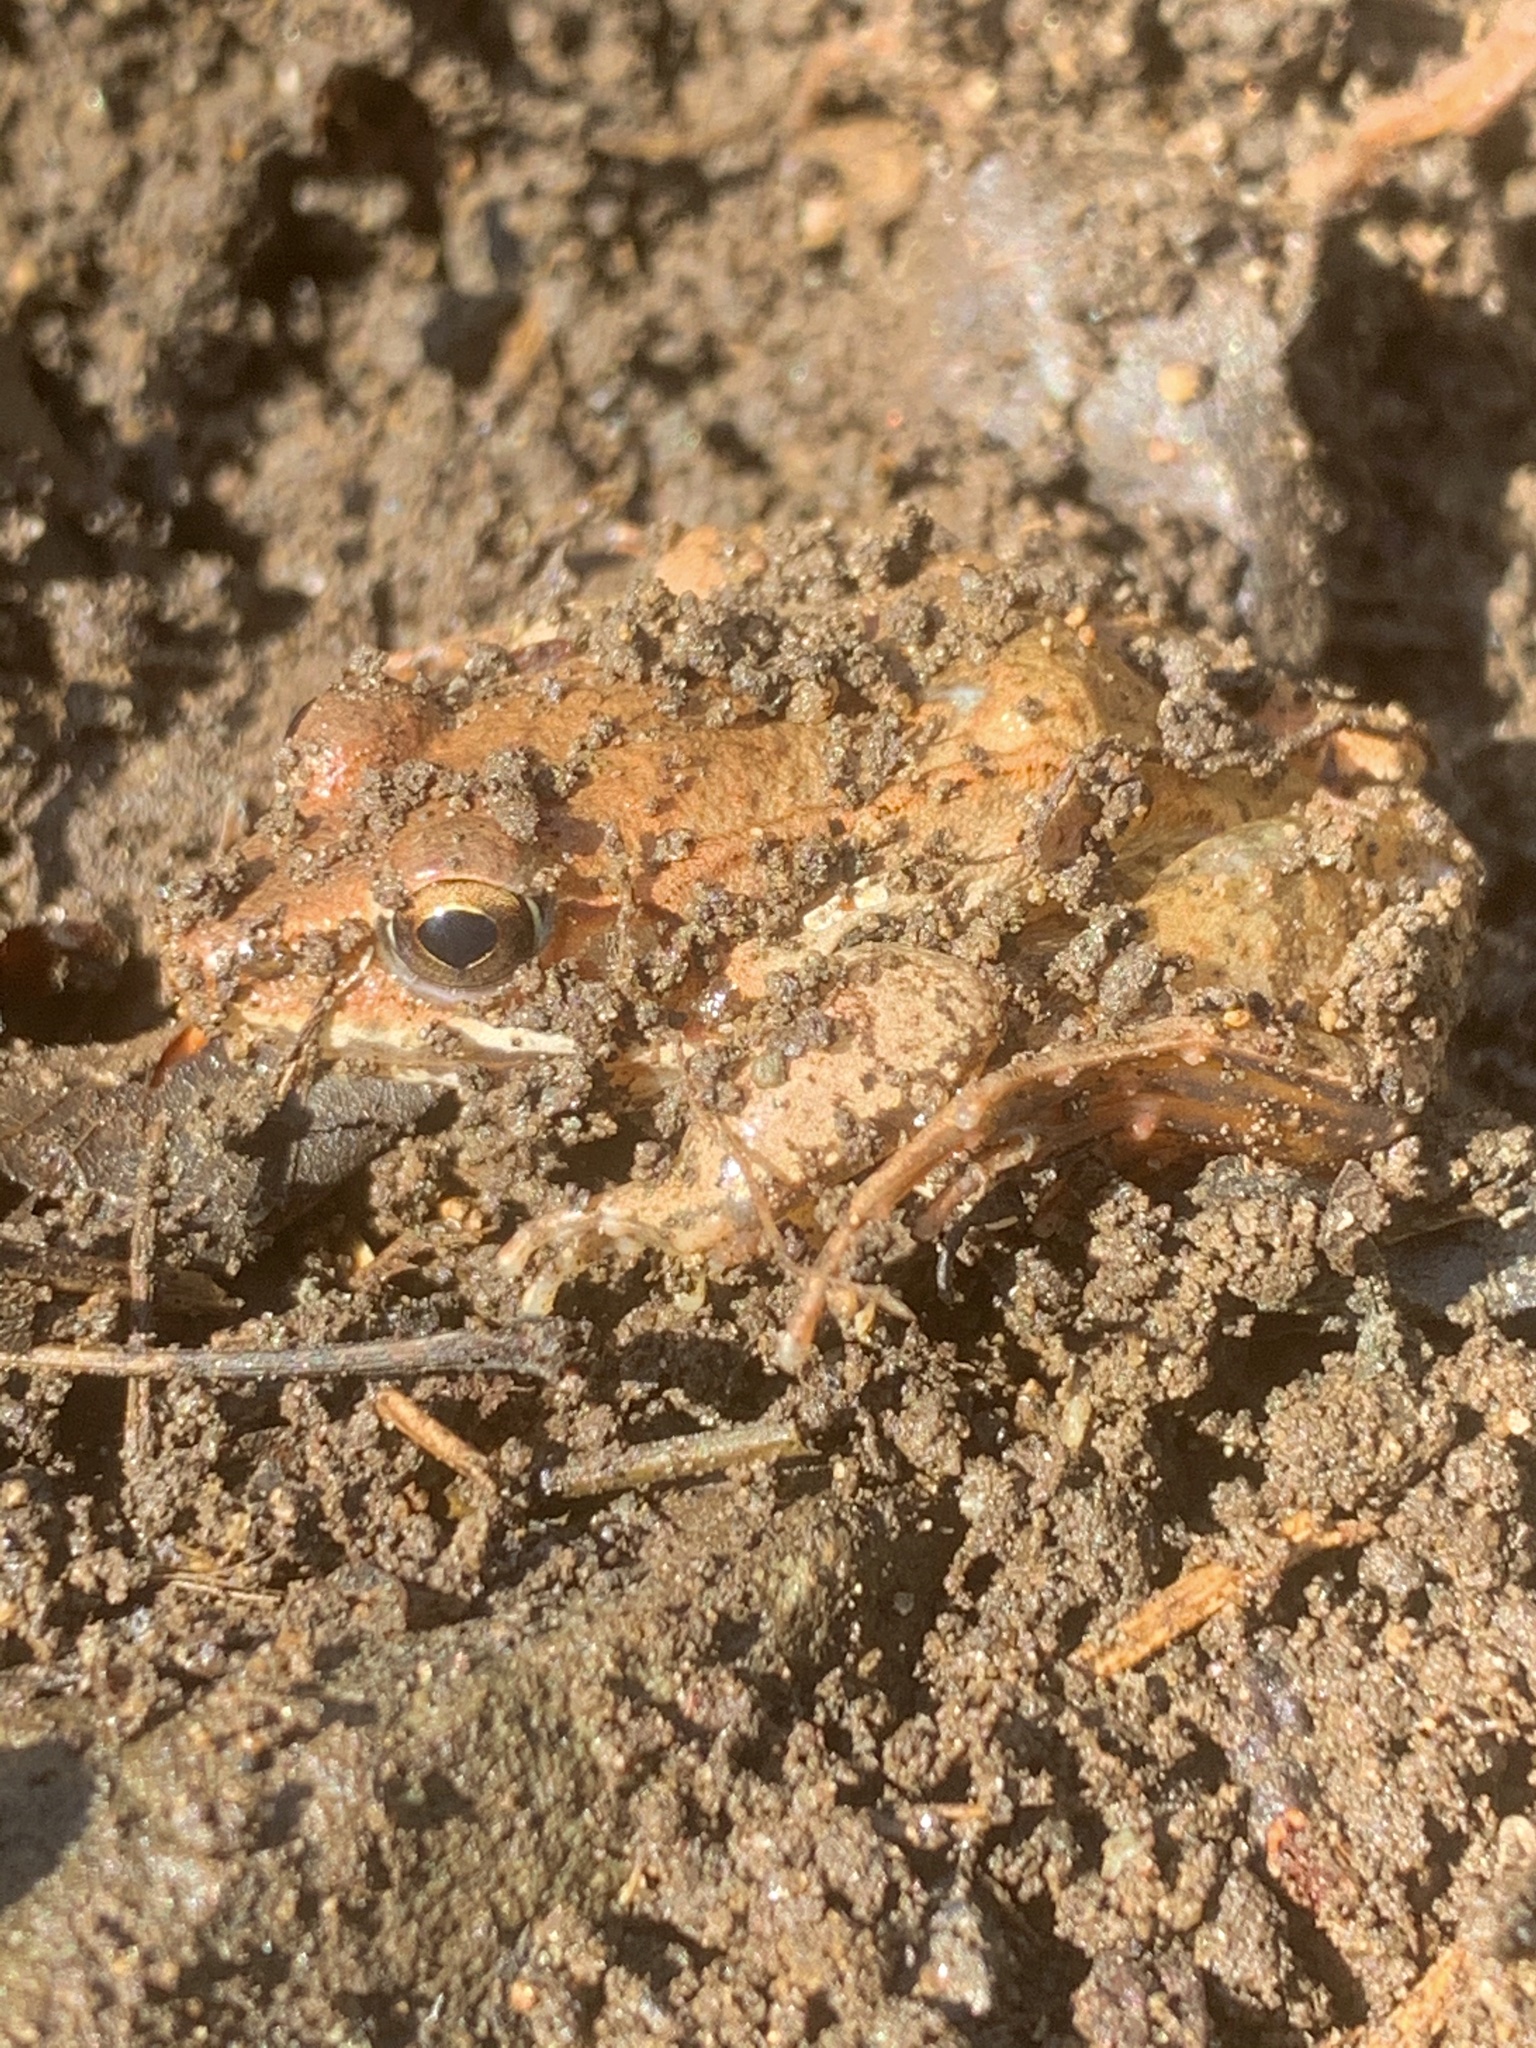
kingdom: Animalia
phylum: Chordata
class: Amphibia
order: Anura
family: Ranidae
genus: Lithobates
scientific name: Lithobates sylvaticus
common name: Wood frog
